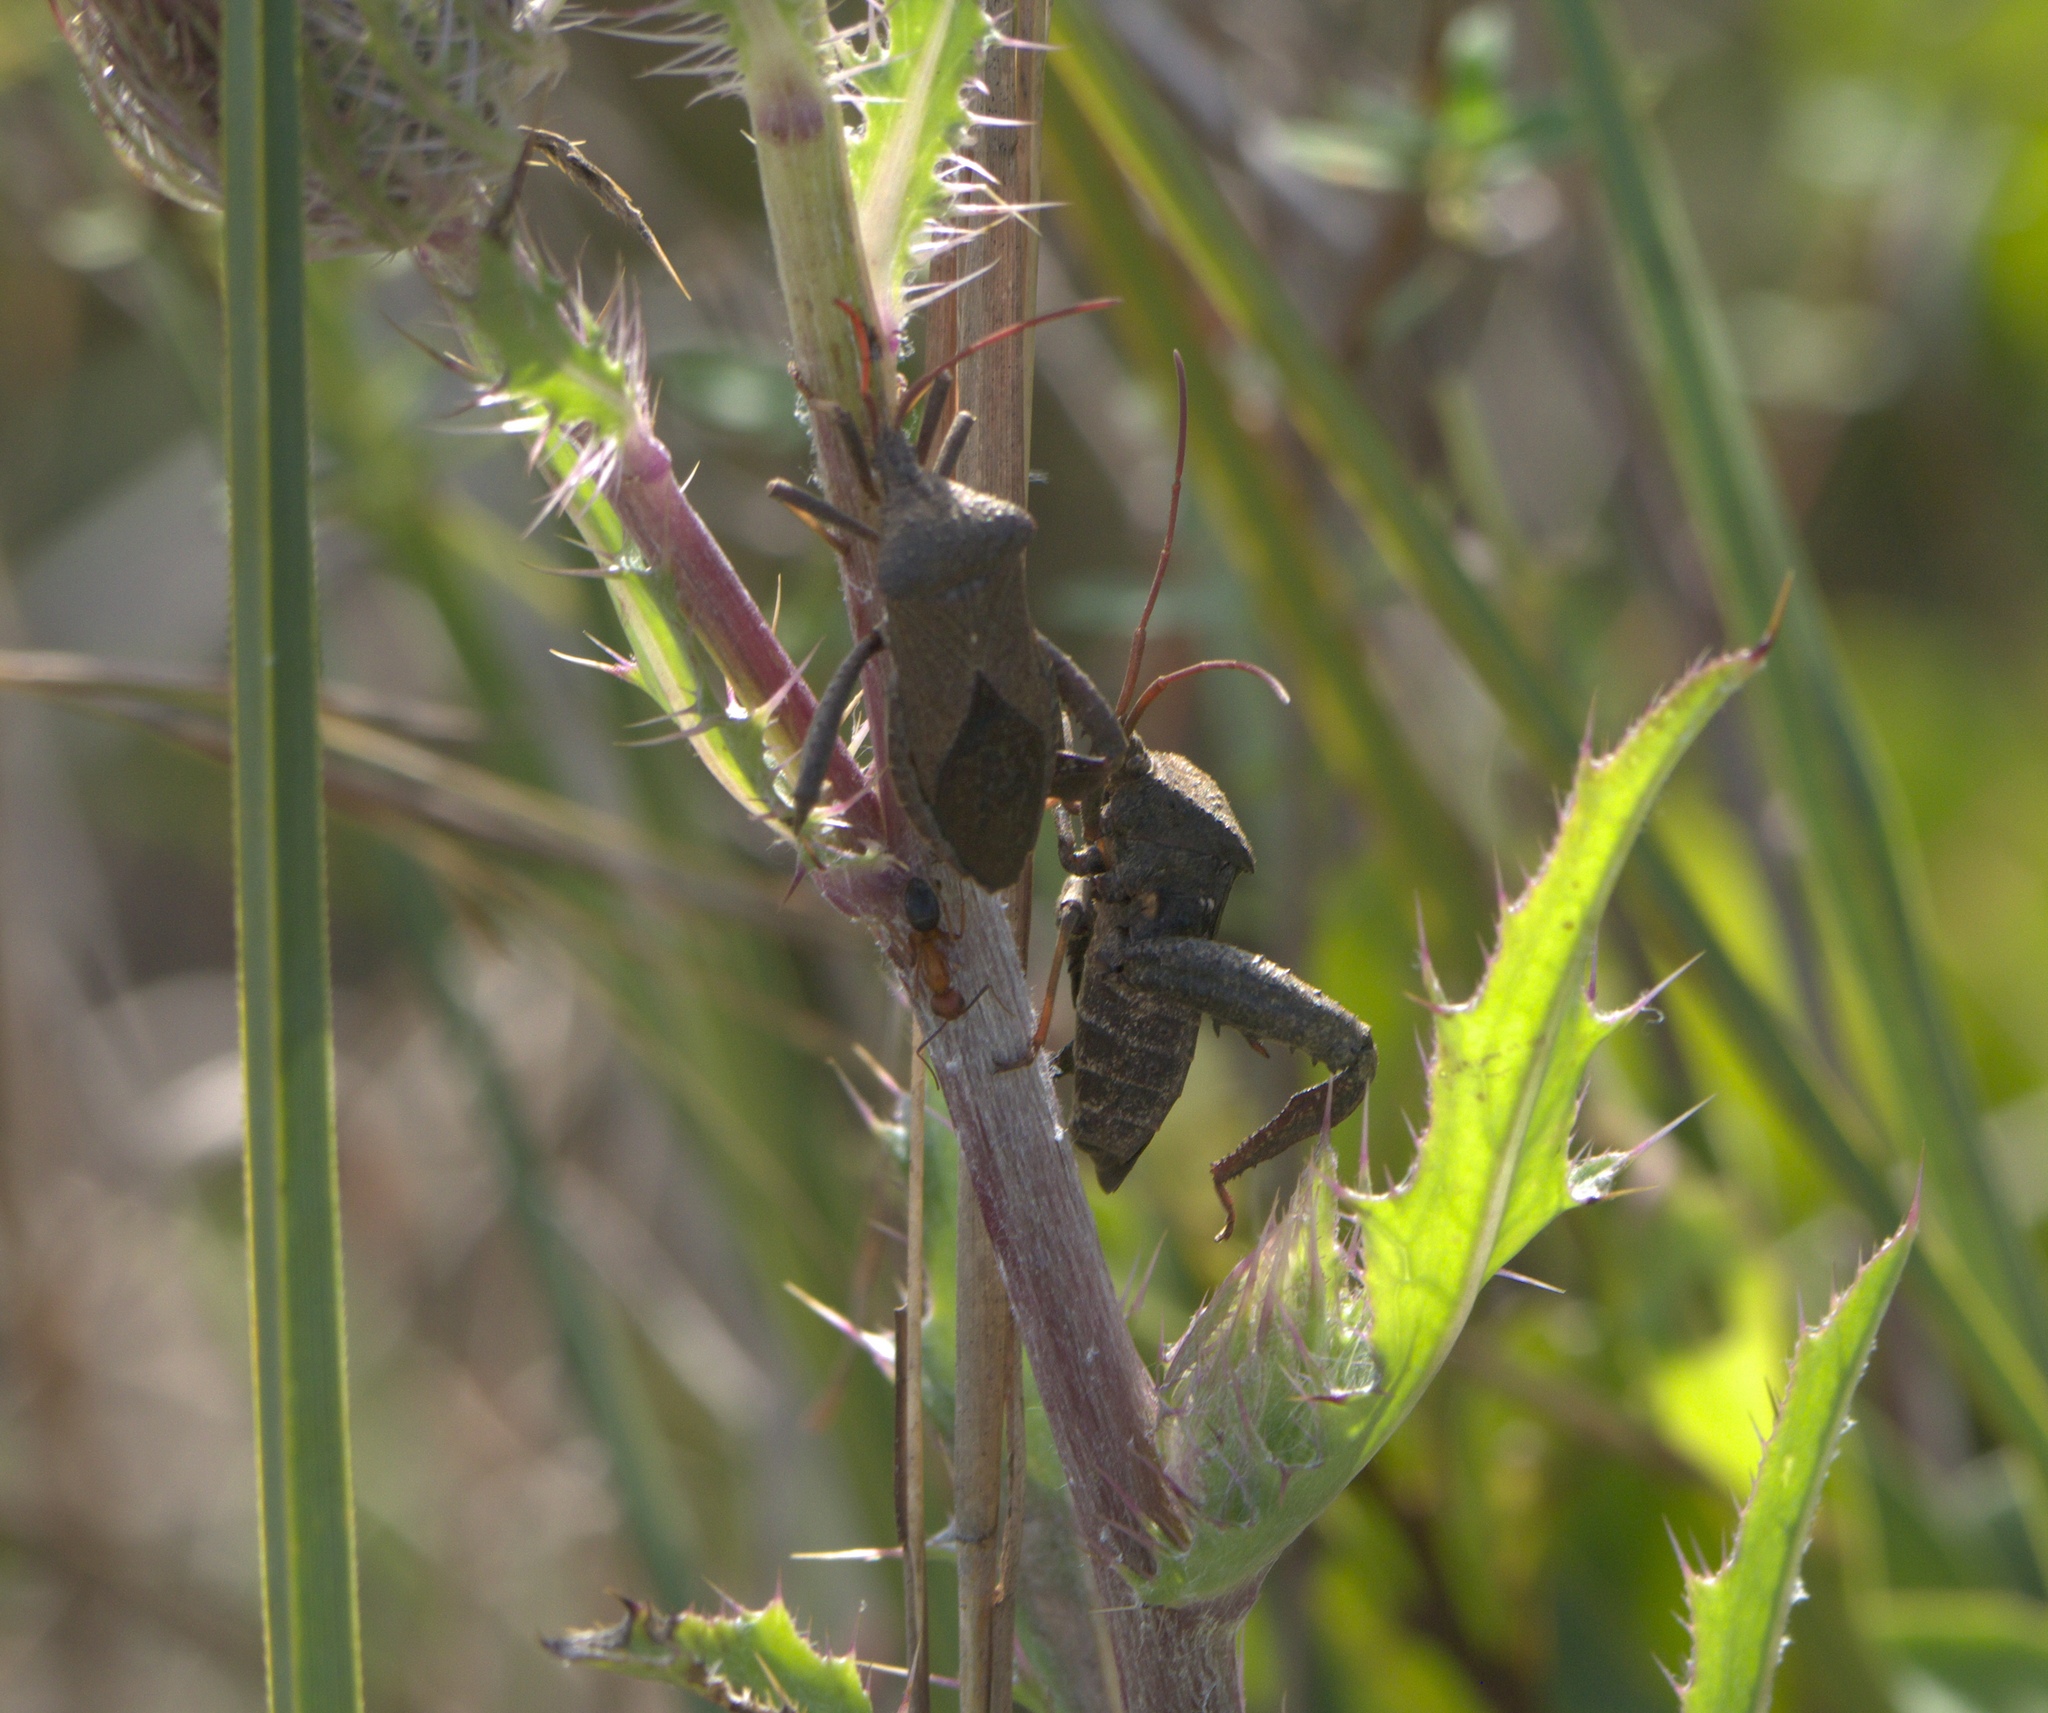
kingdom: Plantae
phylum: Tracheophyta
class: Magnoliopsida
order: Asterales
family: Asteraceae
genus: Cirsium
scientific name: Cirsium horridulum
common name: Bristly thistle
